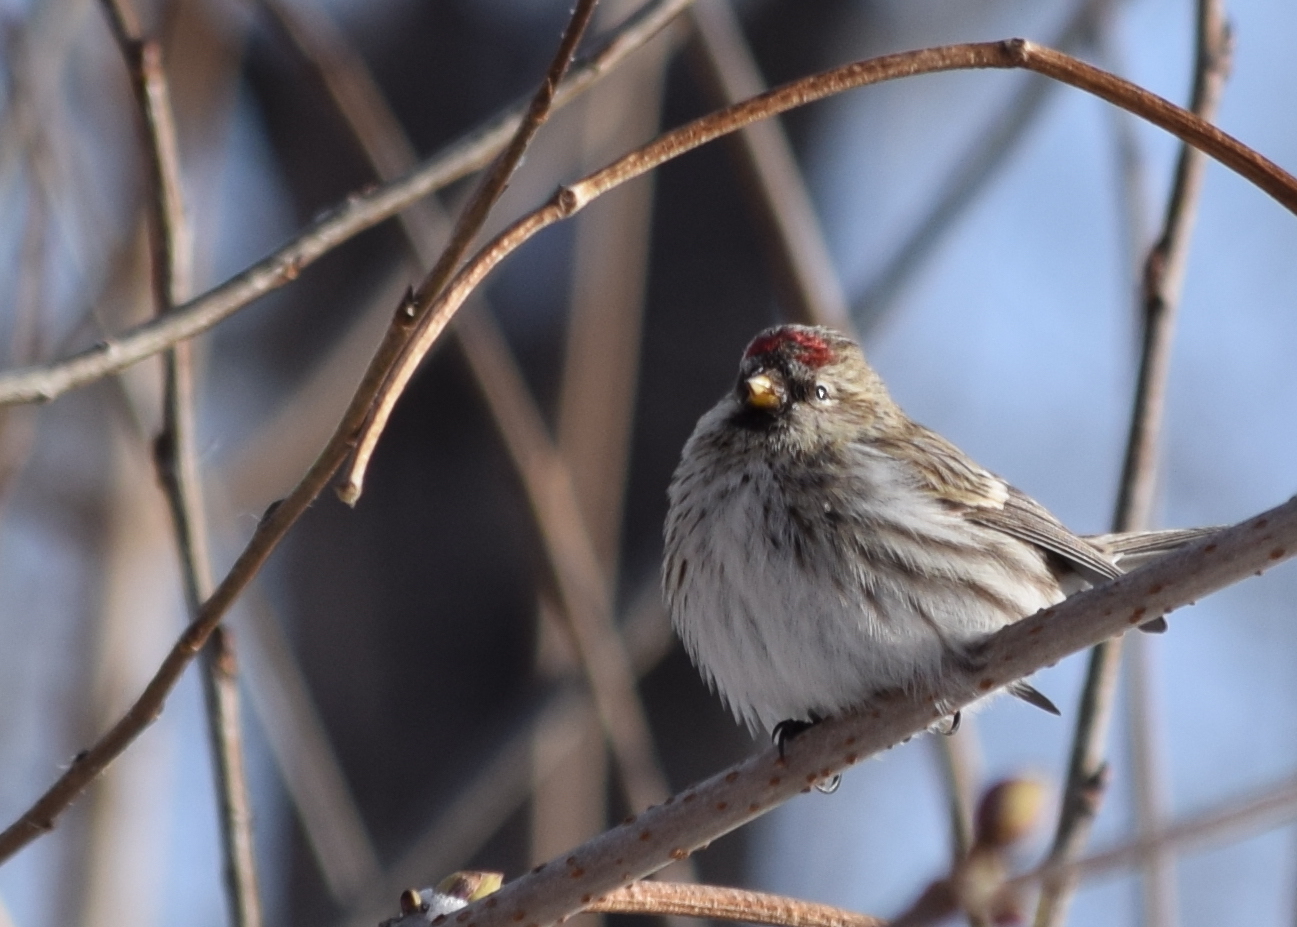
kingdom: Animalia
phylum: Chordata
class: Aves
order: Passeriformes
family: Fringillidae
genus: Acanthis
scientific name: Acanthis flammea
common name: Common redpoll
